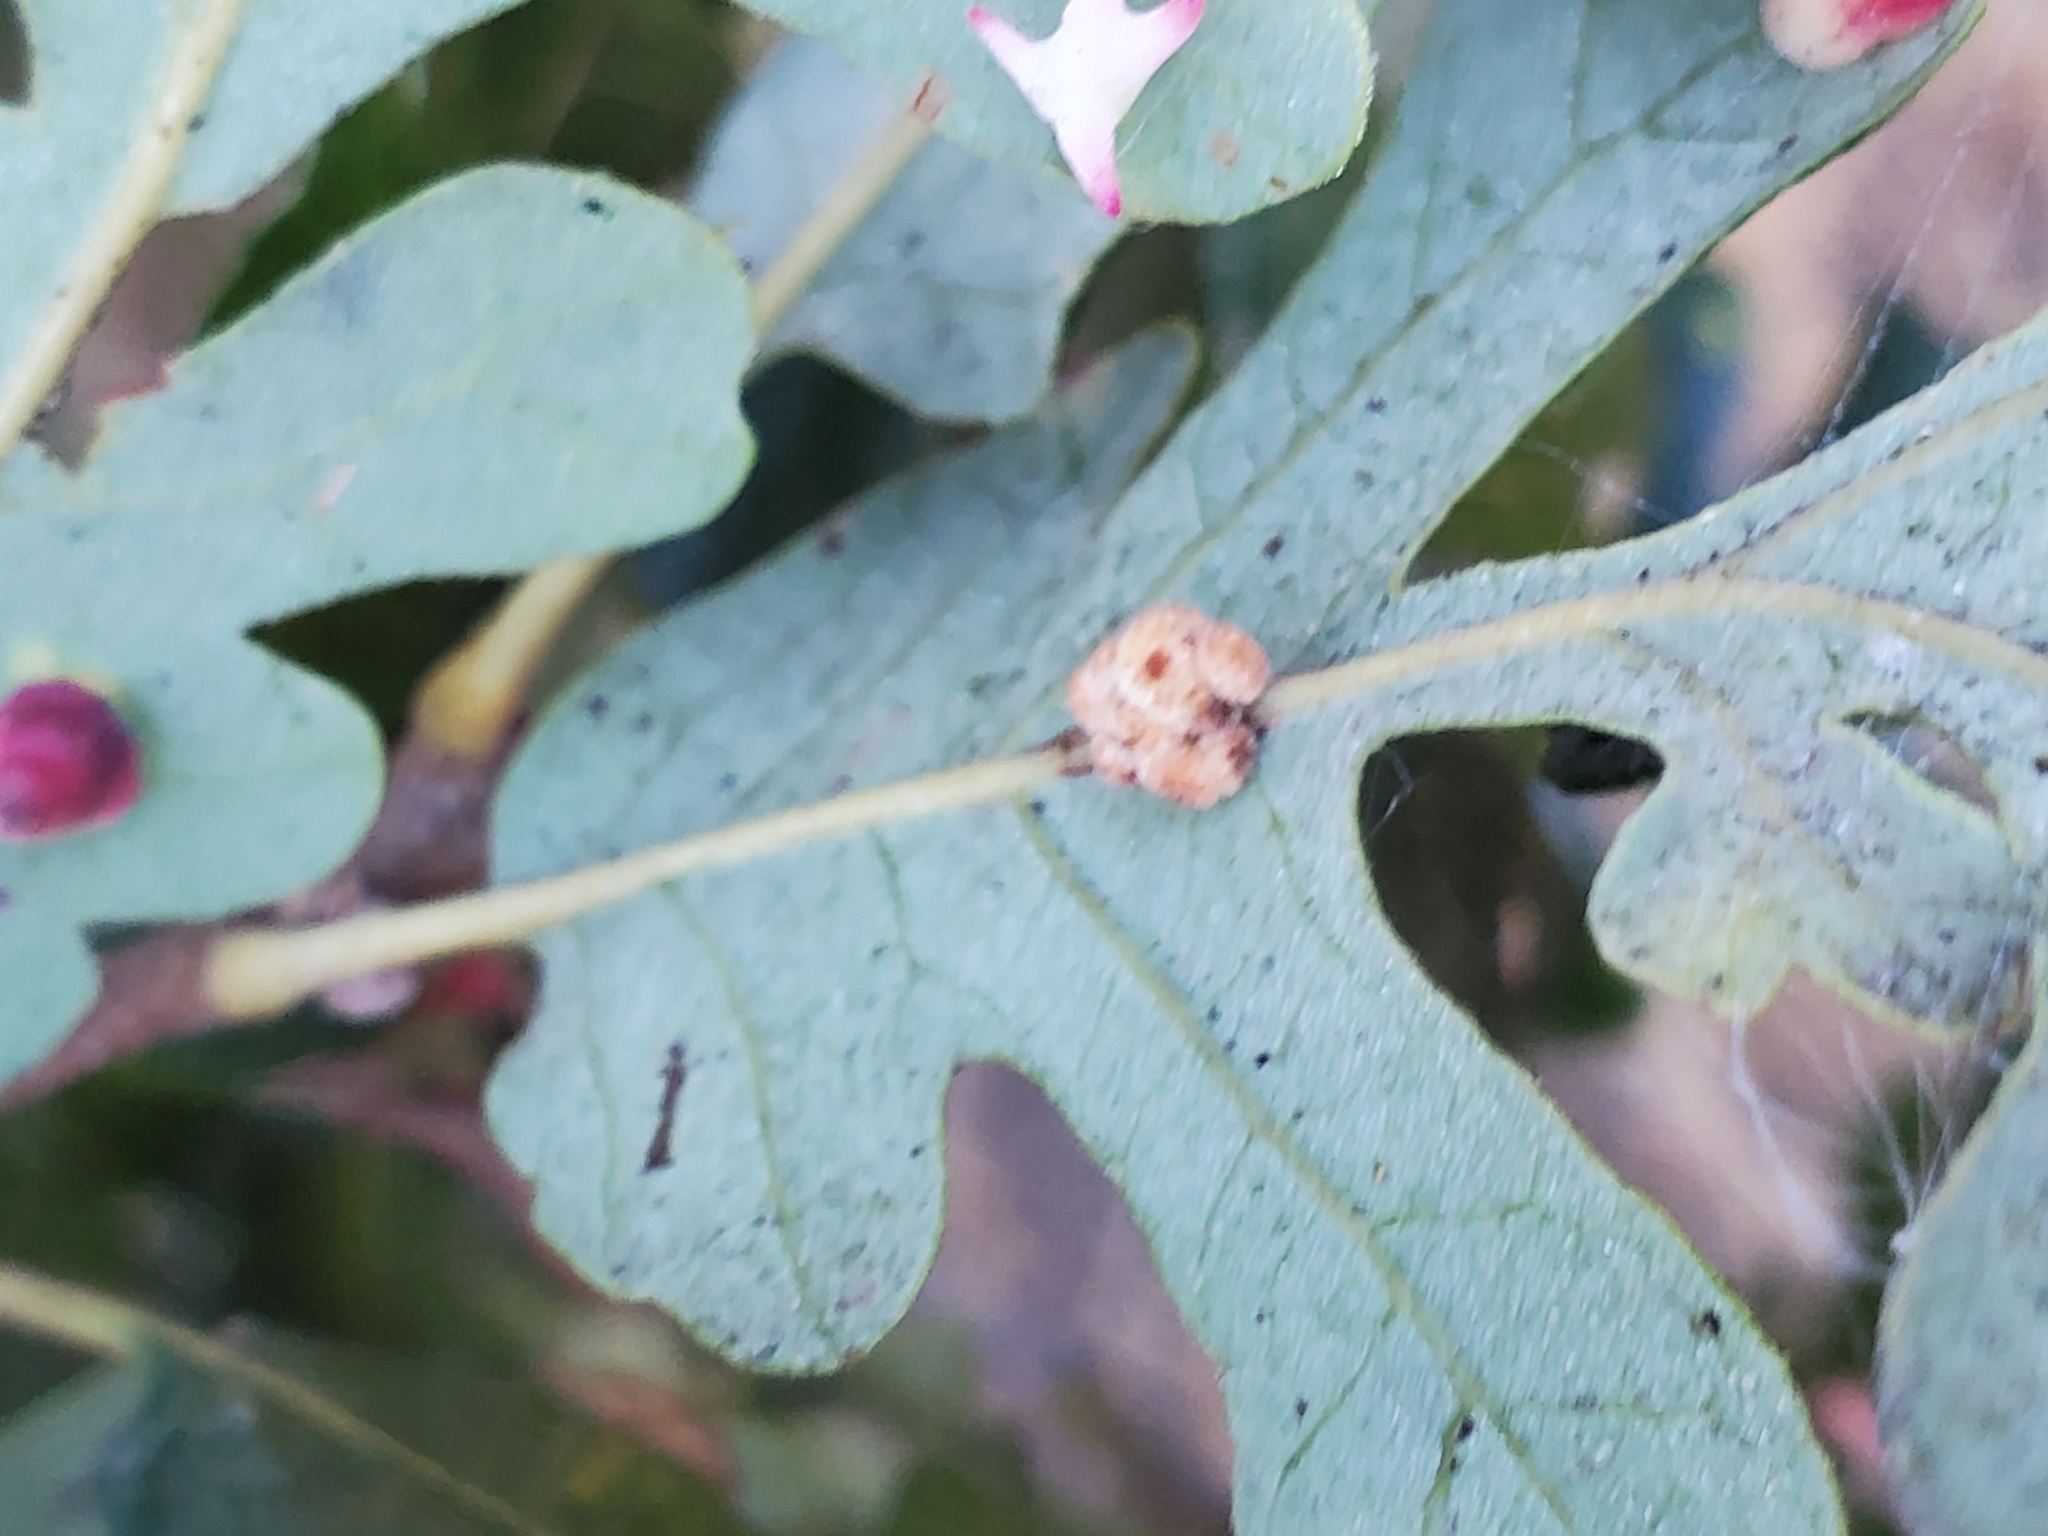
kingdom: Animalia
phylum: Arthropoda
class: Insecta
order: Hymenoptera
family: Cynipidae
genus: Andricus
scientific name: Andricus
